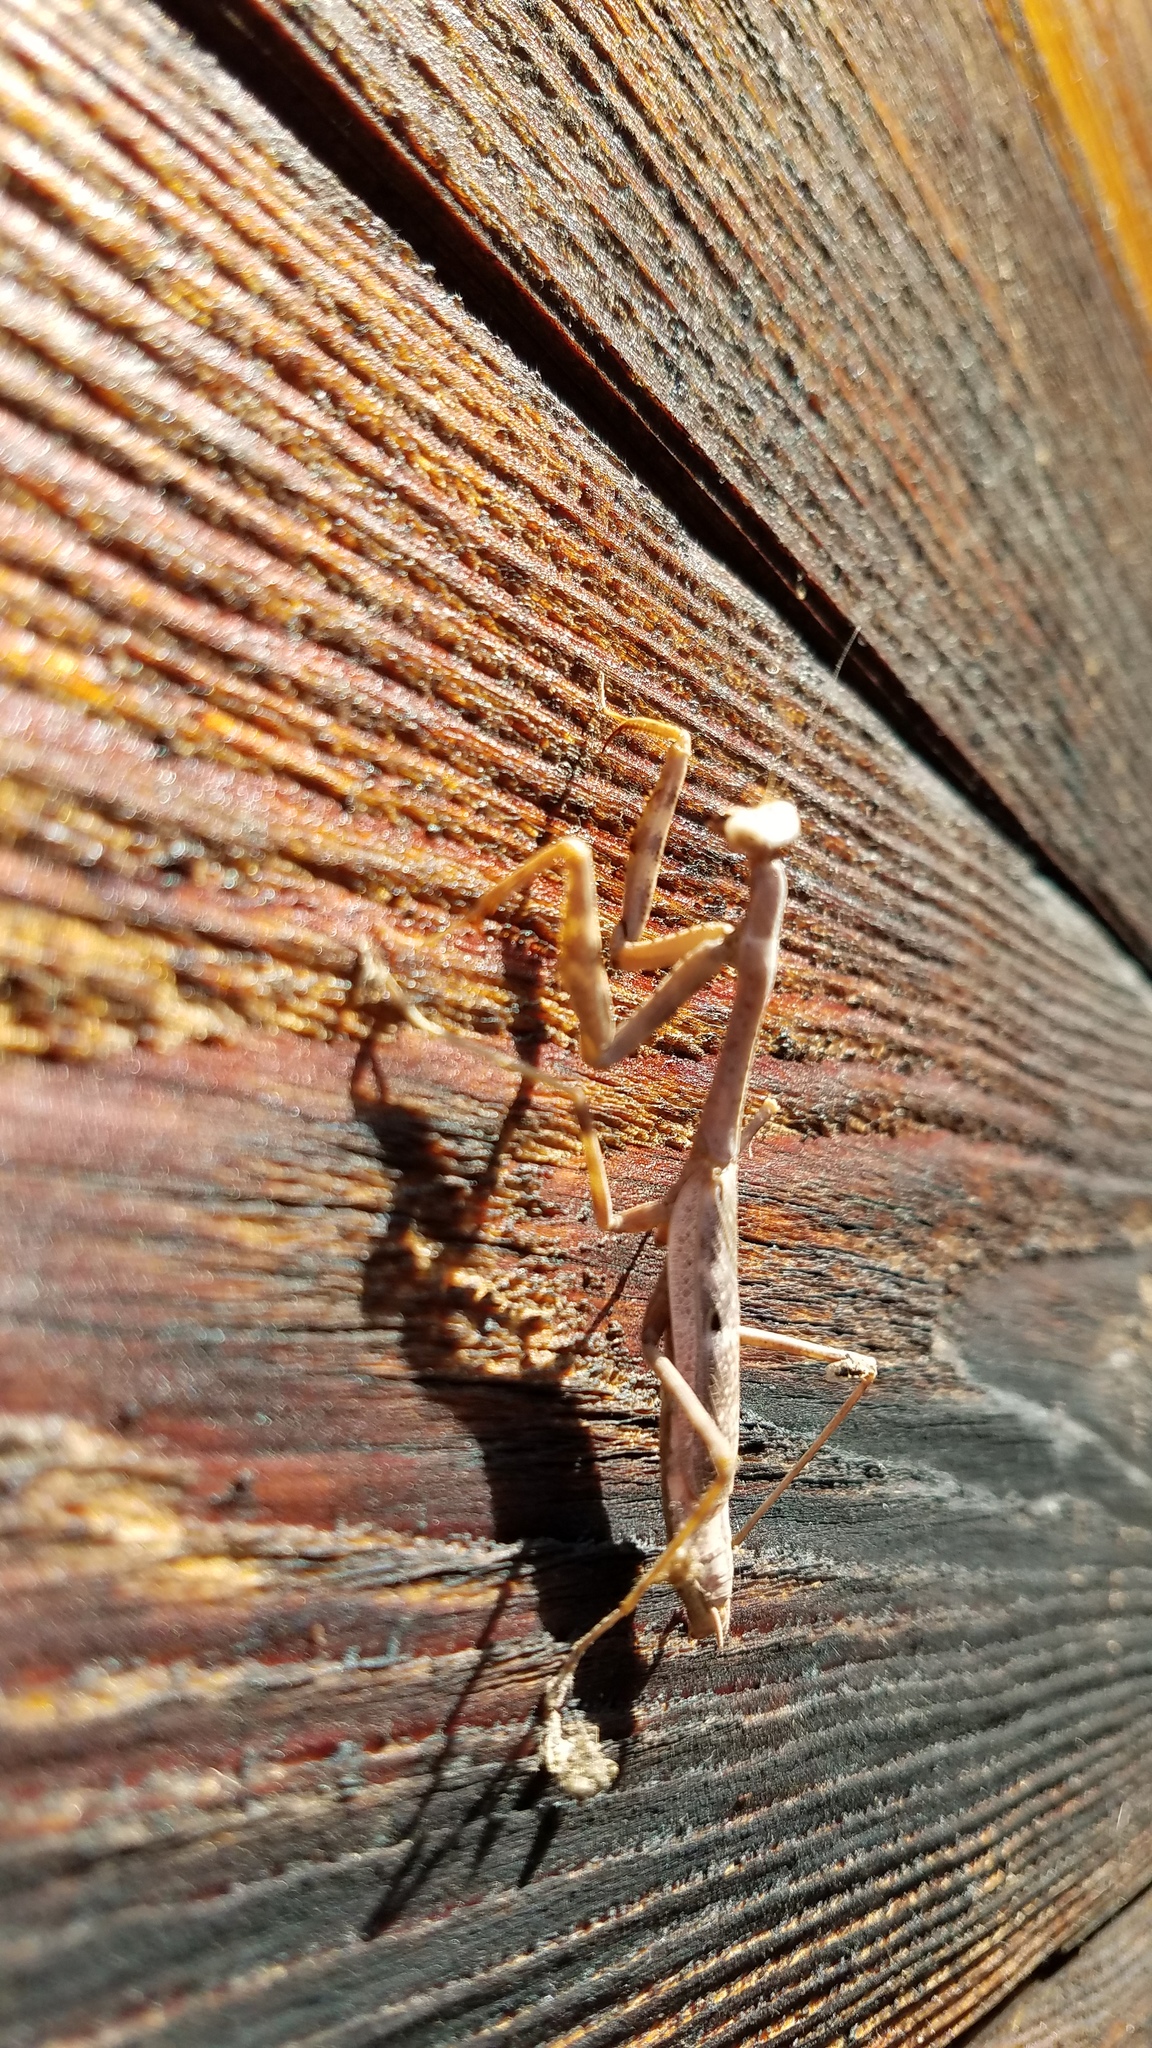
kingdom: Animalia
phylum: Arthropoda
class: Insecta
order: Mantodea
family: Mantidae
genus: Stagmomantis
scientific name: Stagmomantis carolina
